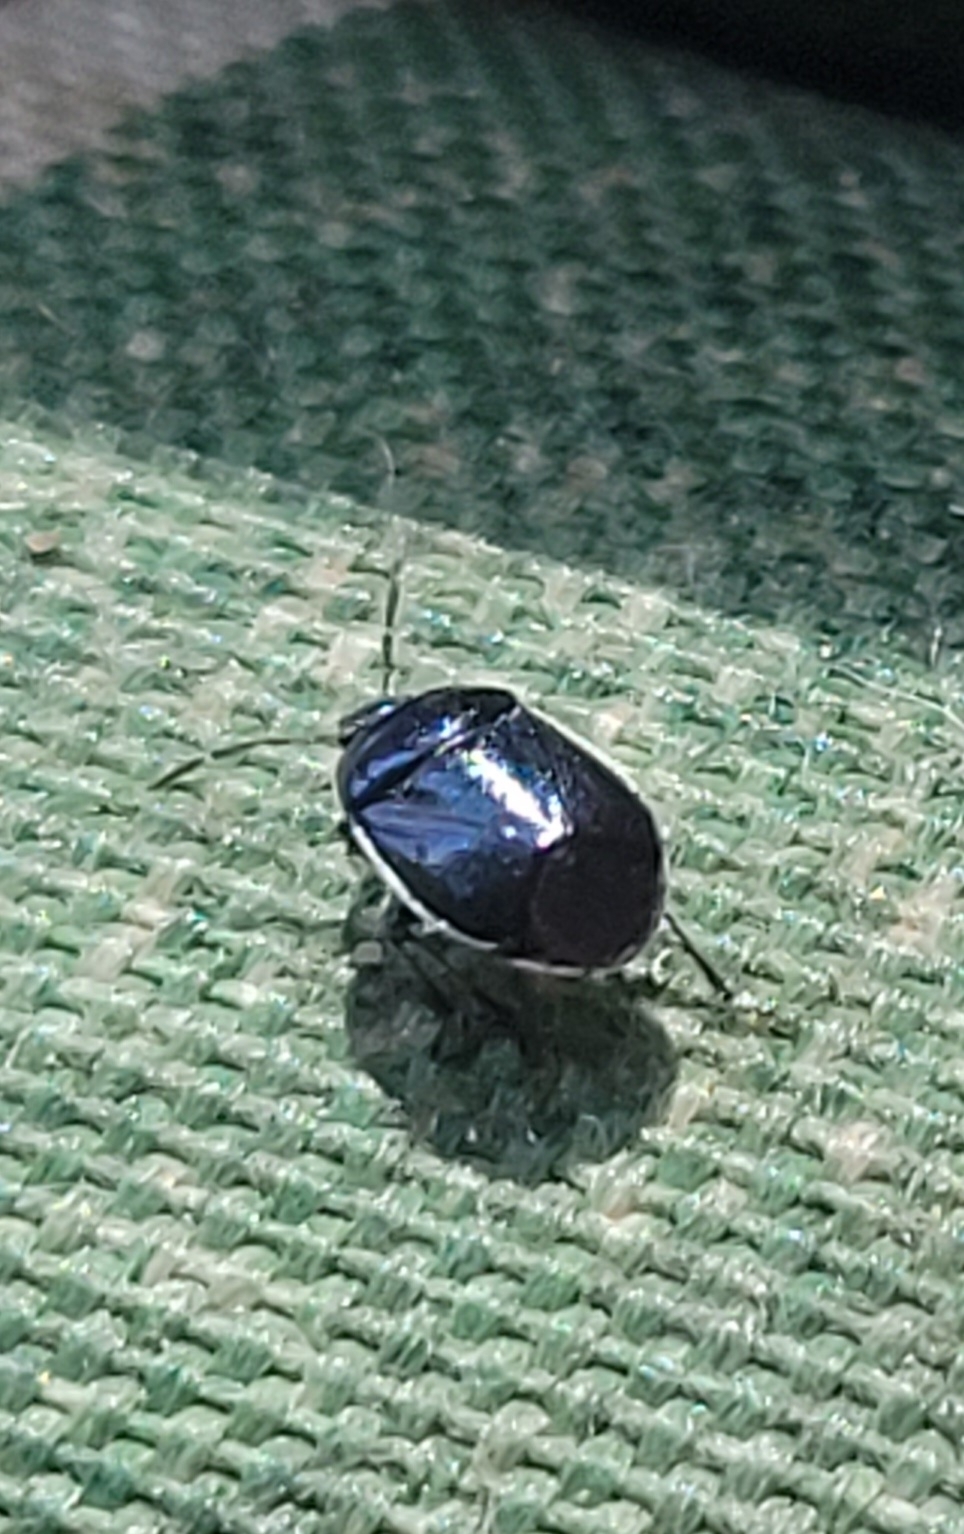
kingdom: Animalia
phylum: Arthropoda
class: Insecta
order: Hemiptera
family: Cydnidae
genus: Sehirus
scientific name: Sehirus cinctus
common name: White-margined burrower bug
